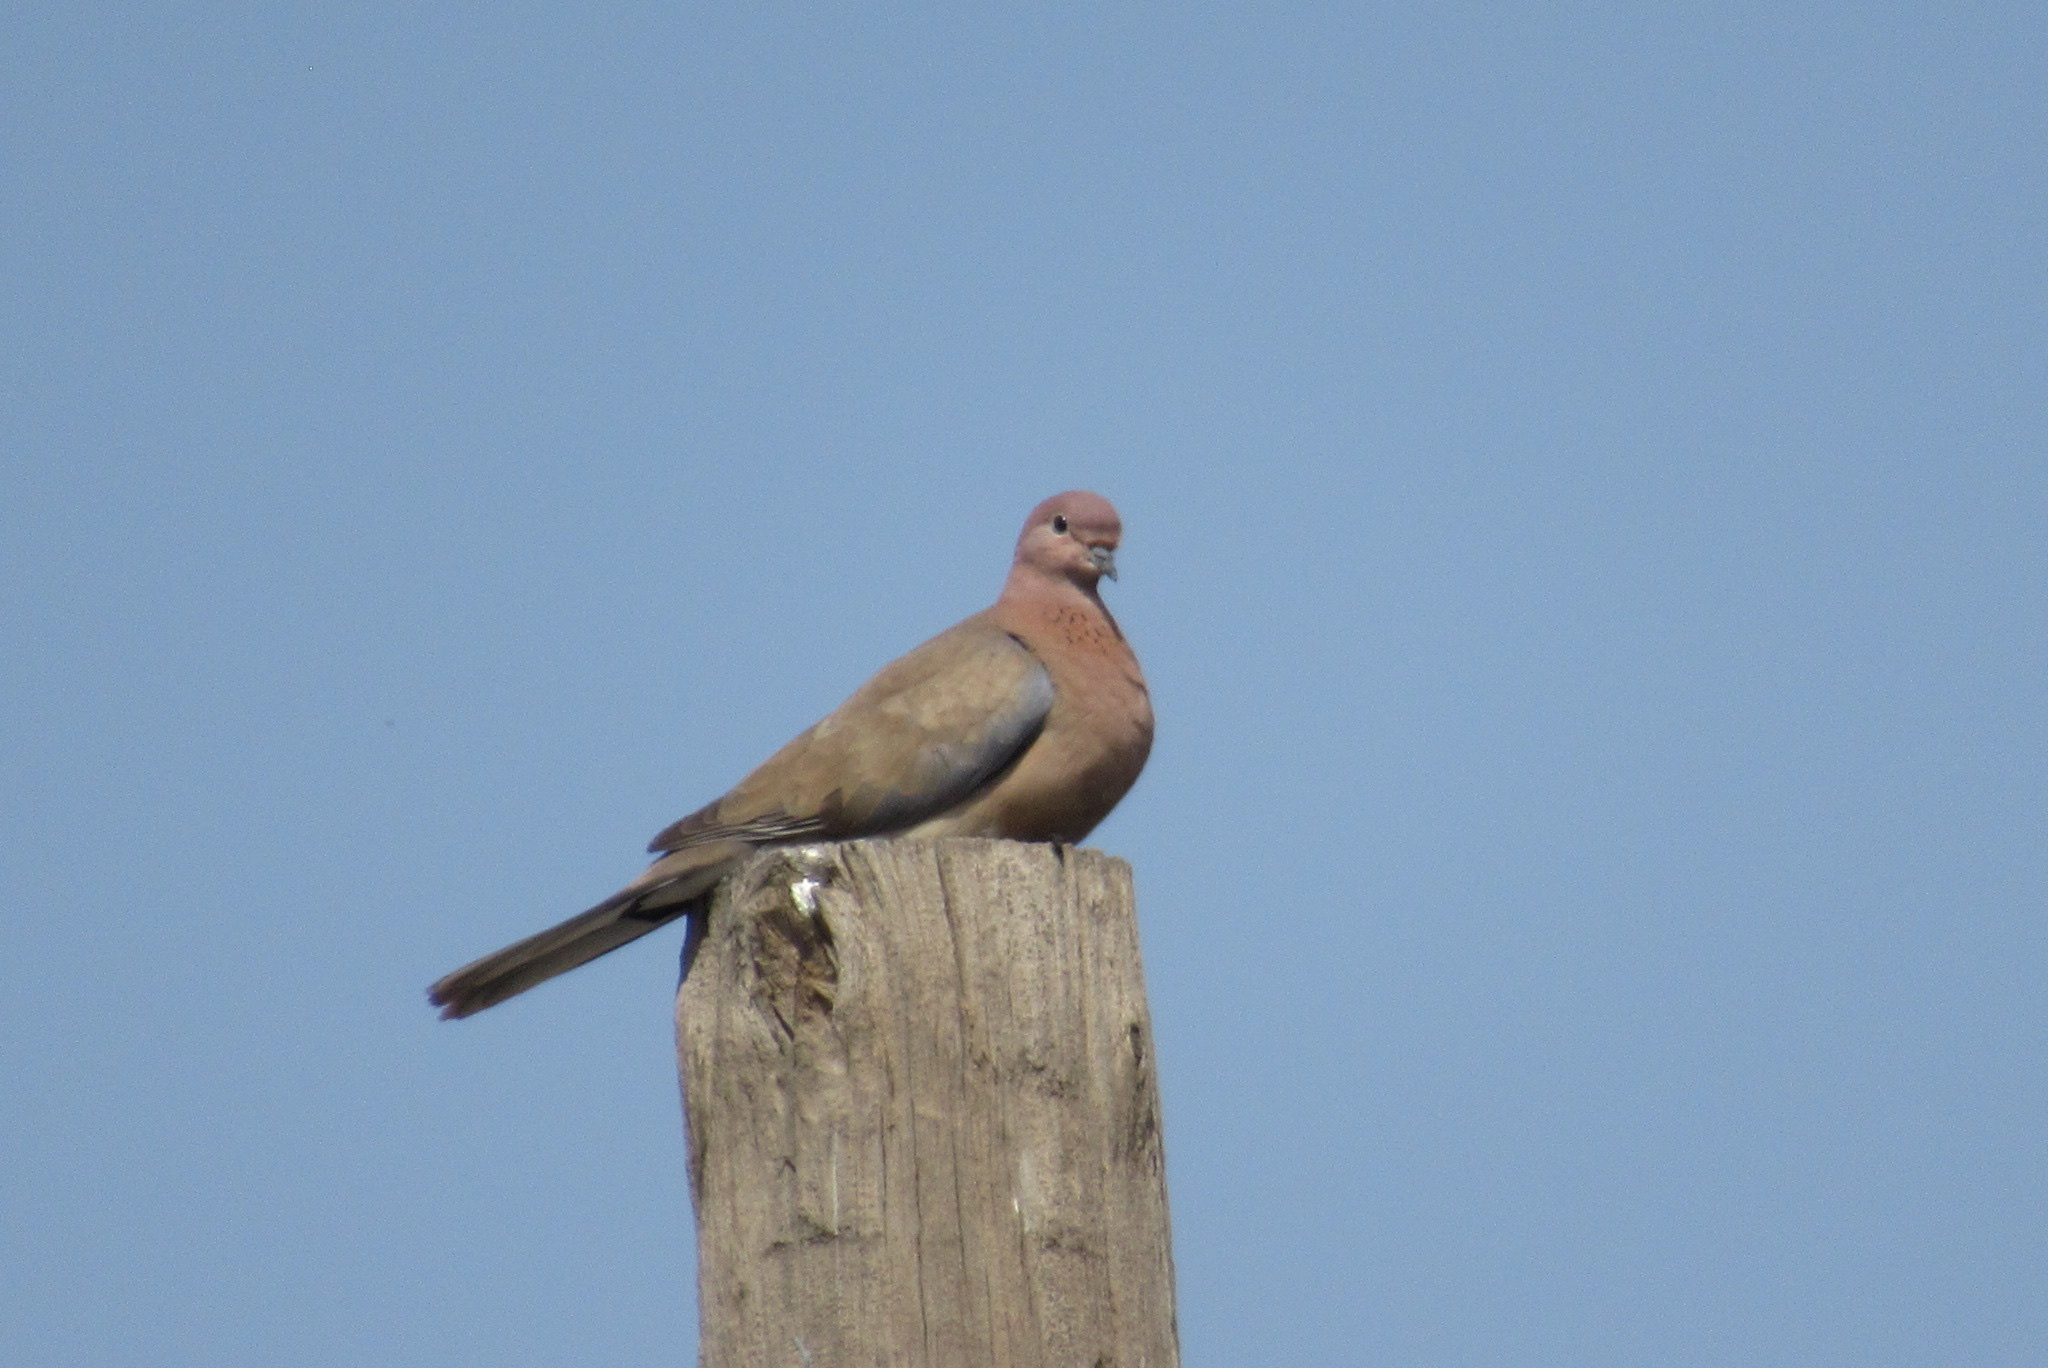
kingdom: Animalia
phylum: Chordata
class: Aves
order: Columbiformes
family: Columbidae
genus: Spilopelia
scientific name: Spilopelia senegalensis
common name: Laughing dove
